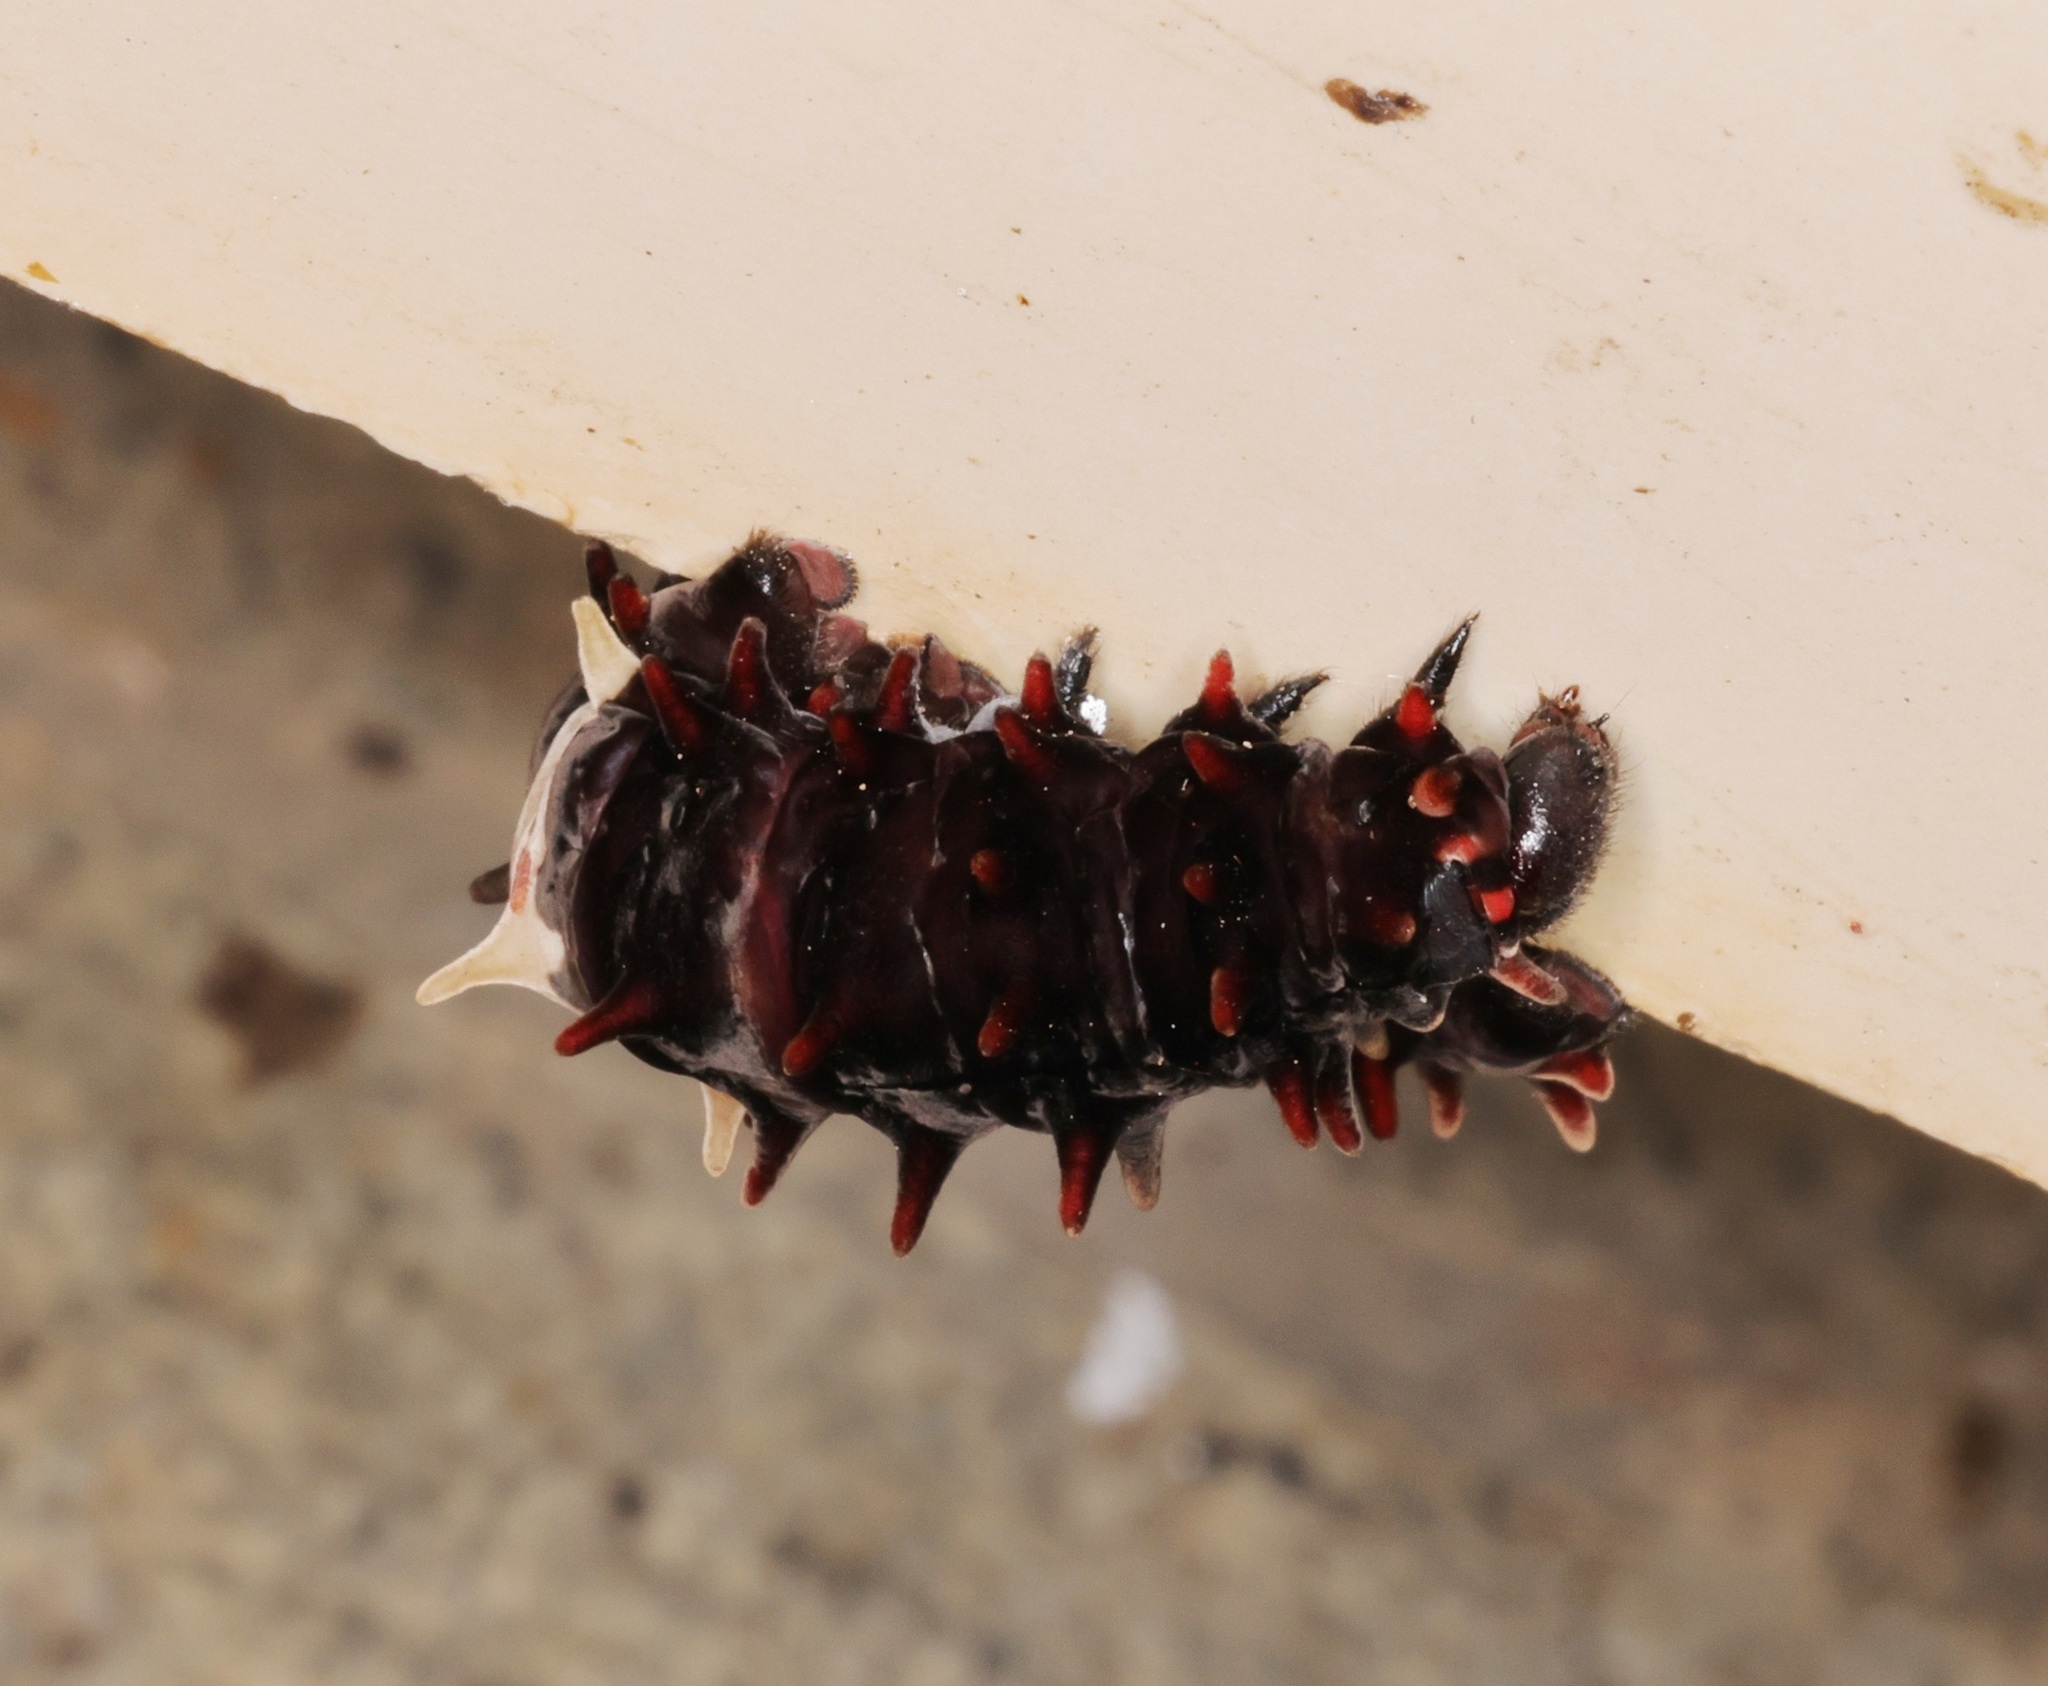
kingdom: Animalia
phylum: Arthropoda
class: Insecta
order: Lepidoptera
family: Papilionidae
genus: Pachliopta
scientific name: Pachliopta aristolochiae
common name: Common rose
